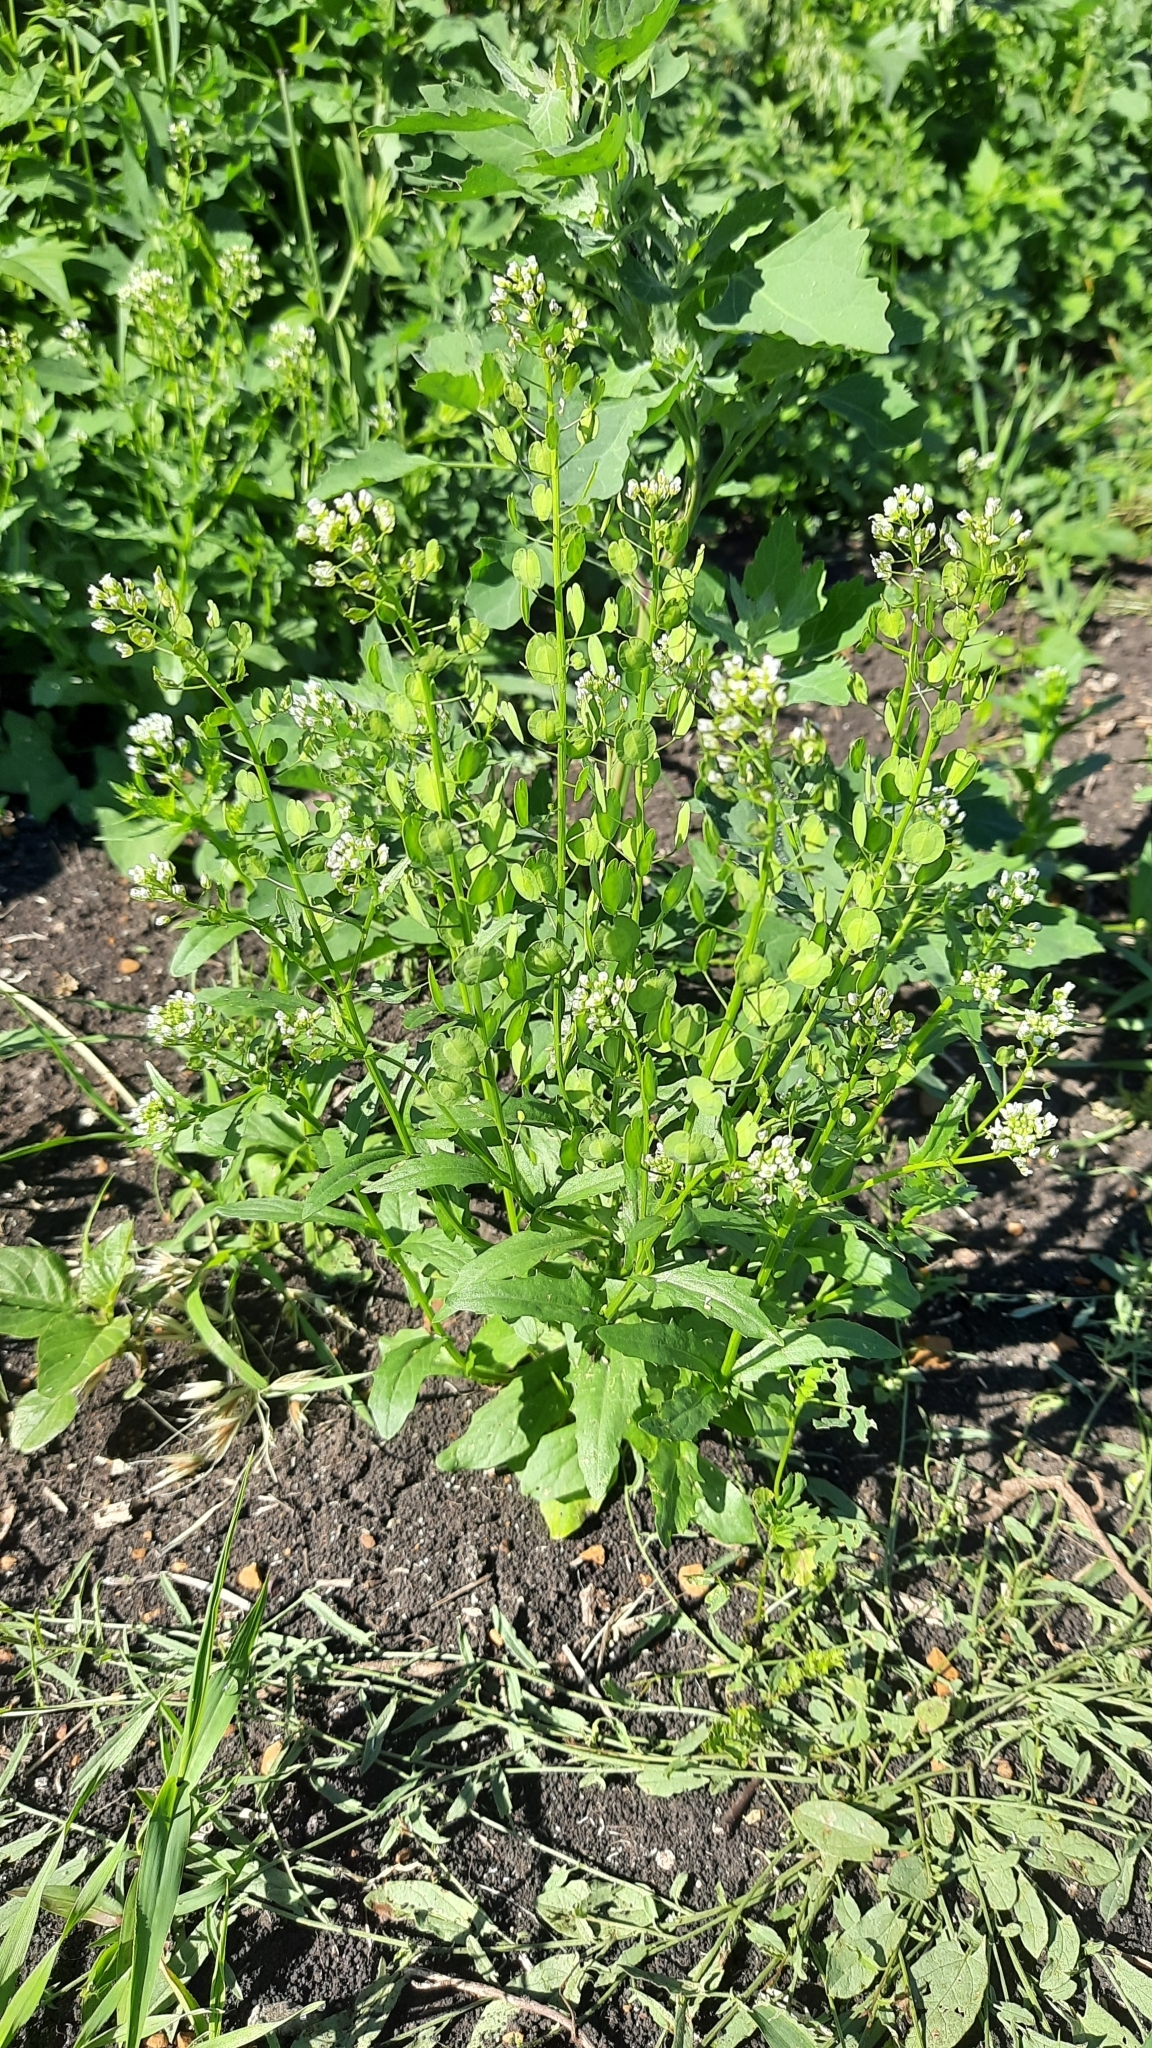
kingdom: Plantae
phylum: Tracheophyta
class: Magnoliopsida
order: Brassicales
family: Brassicaceae
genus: Thlaspi
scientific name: Thlaspi arvense
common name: Field pennycress
